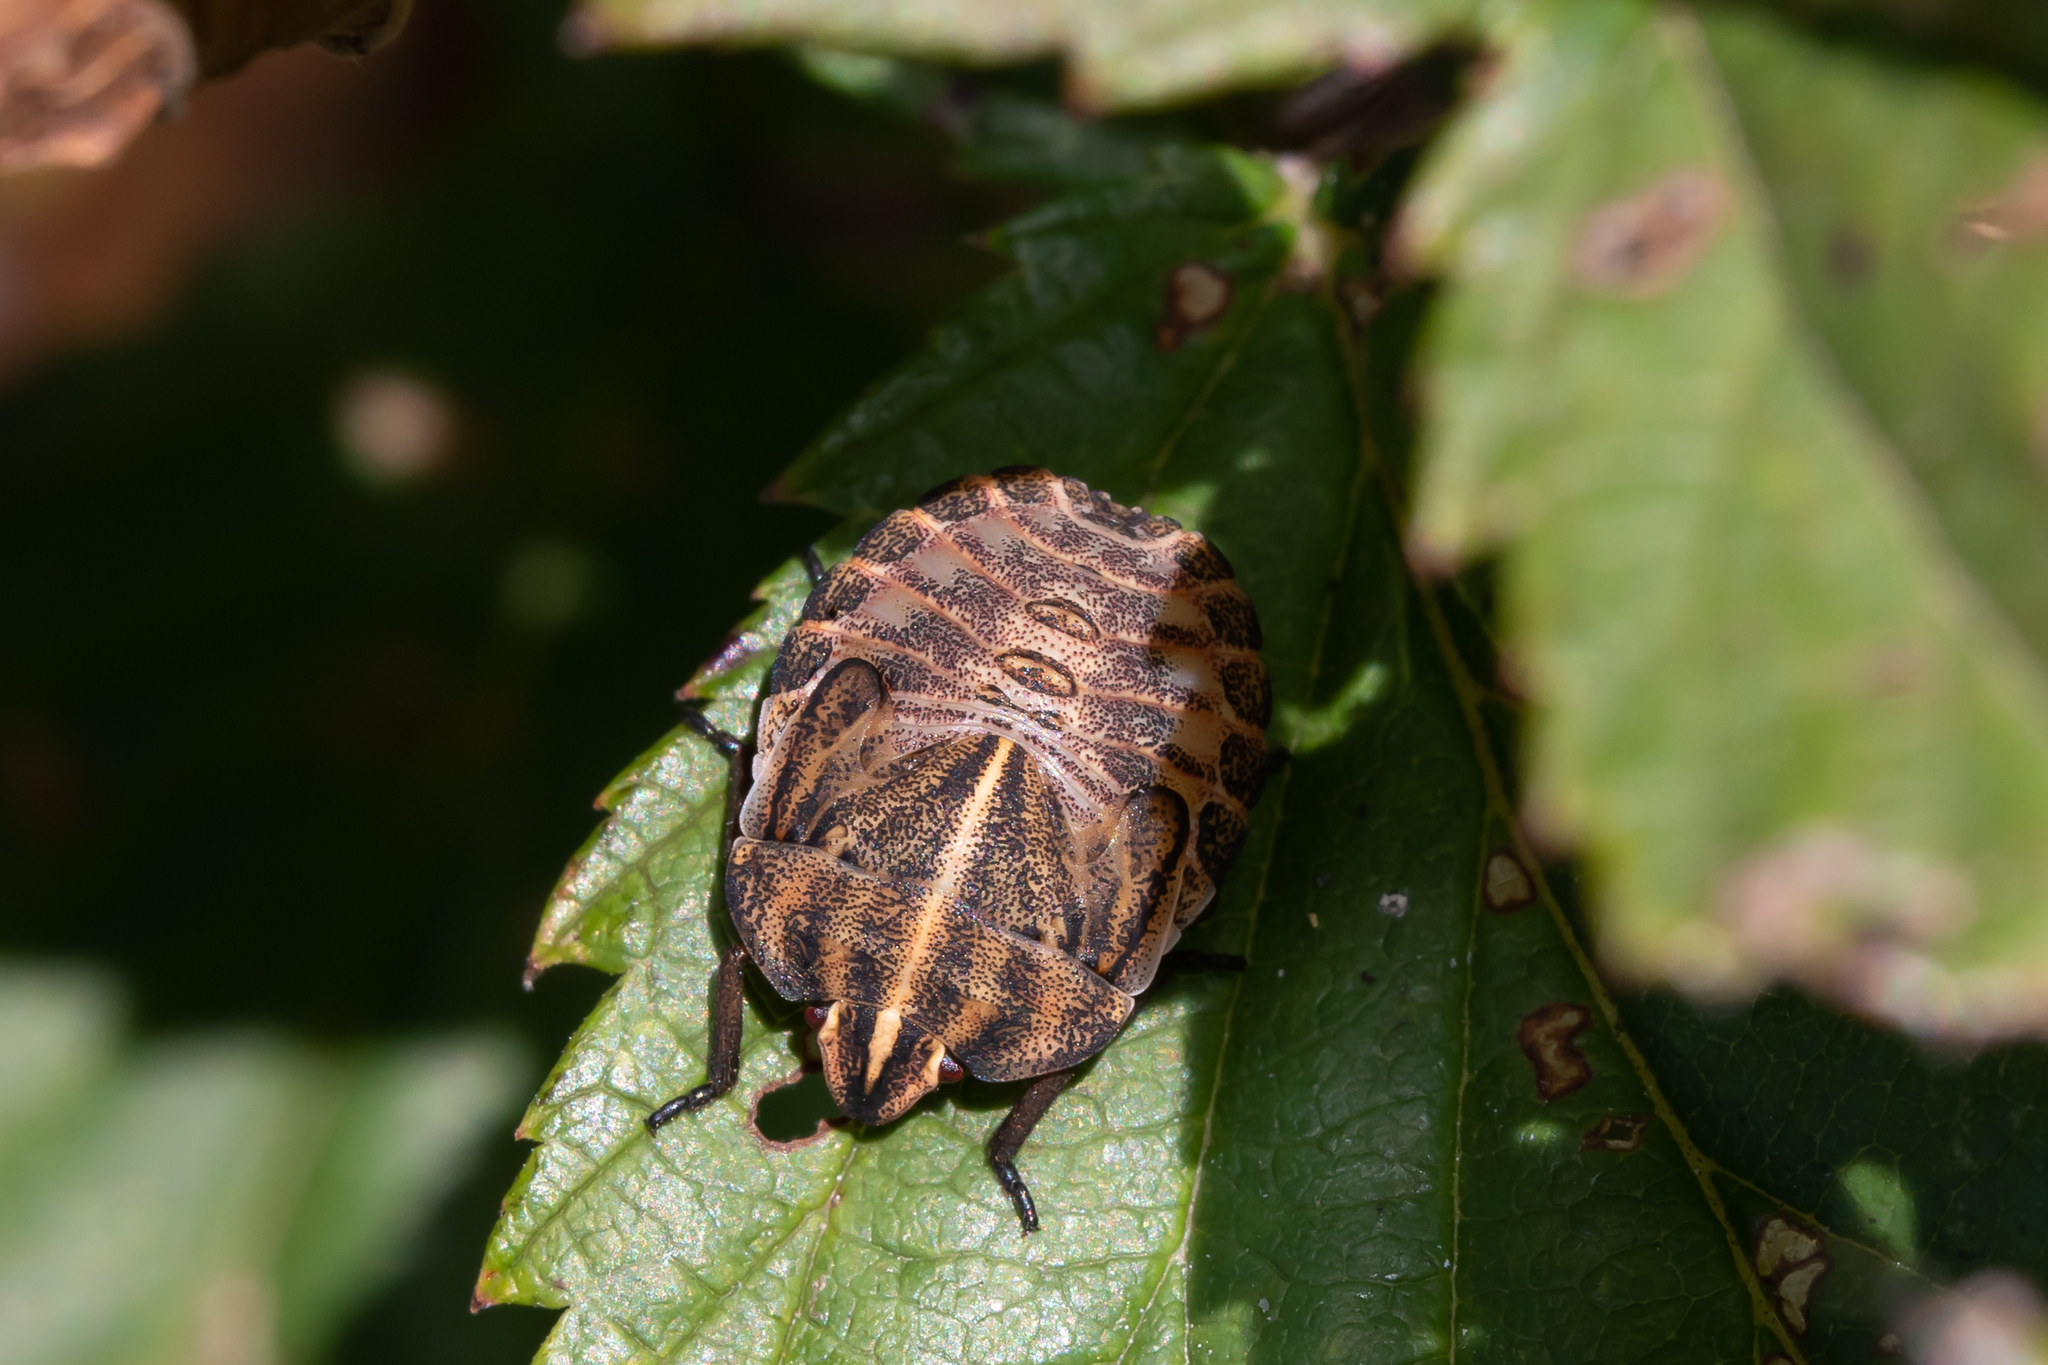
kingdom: Animalia
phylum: Arthropoda
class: Insecta
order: Hemiptera
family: Pentatomidae
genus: Graphosoma
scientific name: Graphosoma italicum
